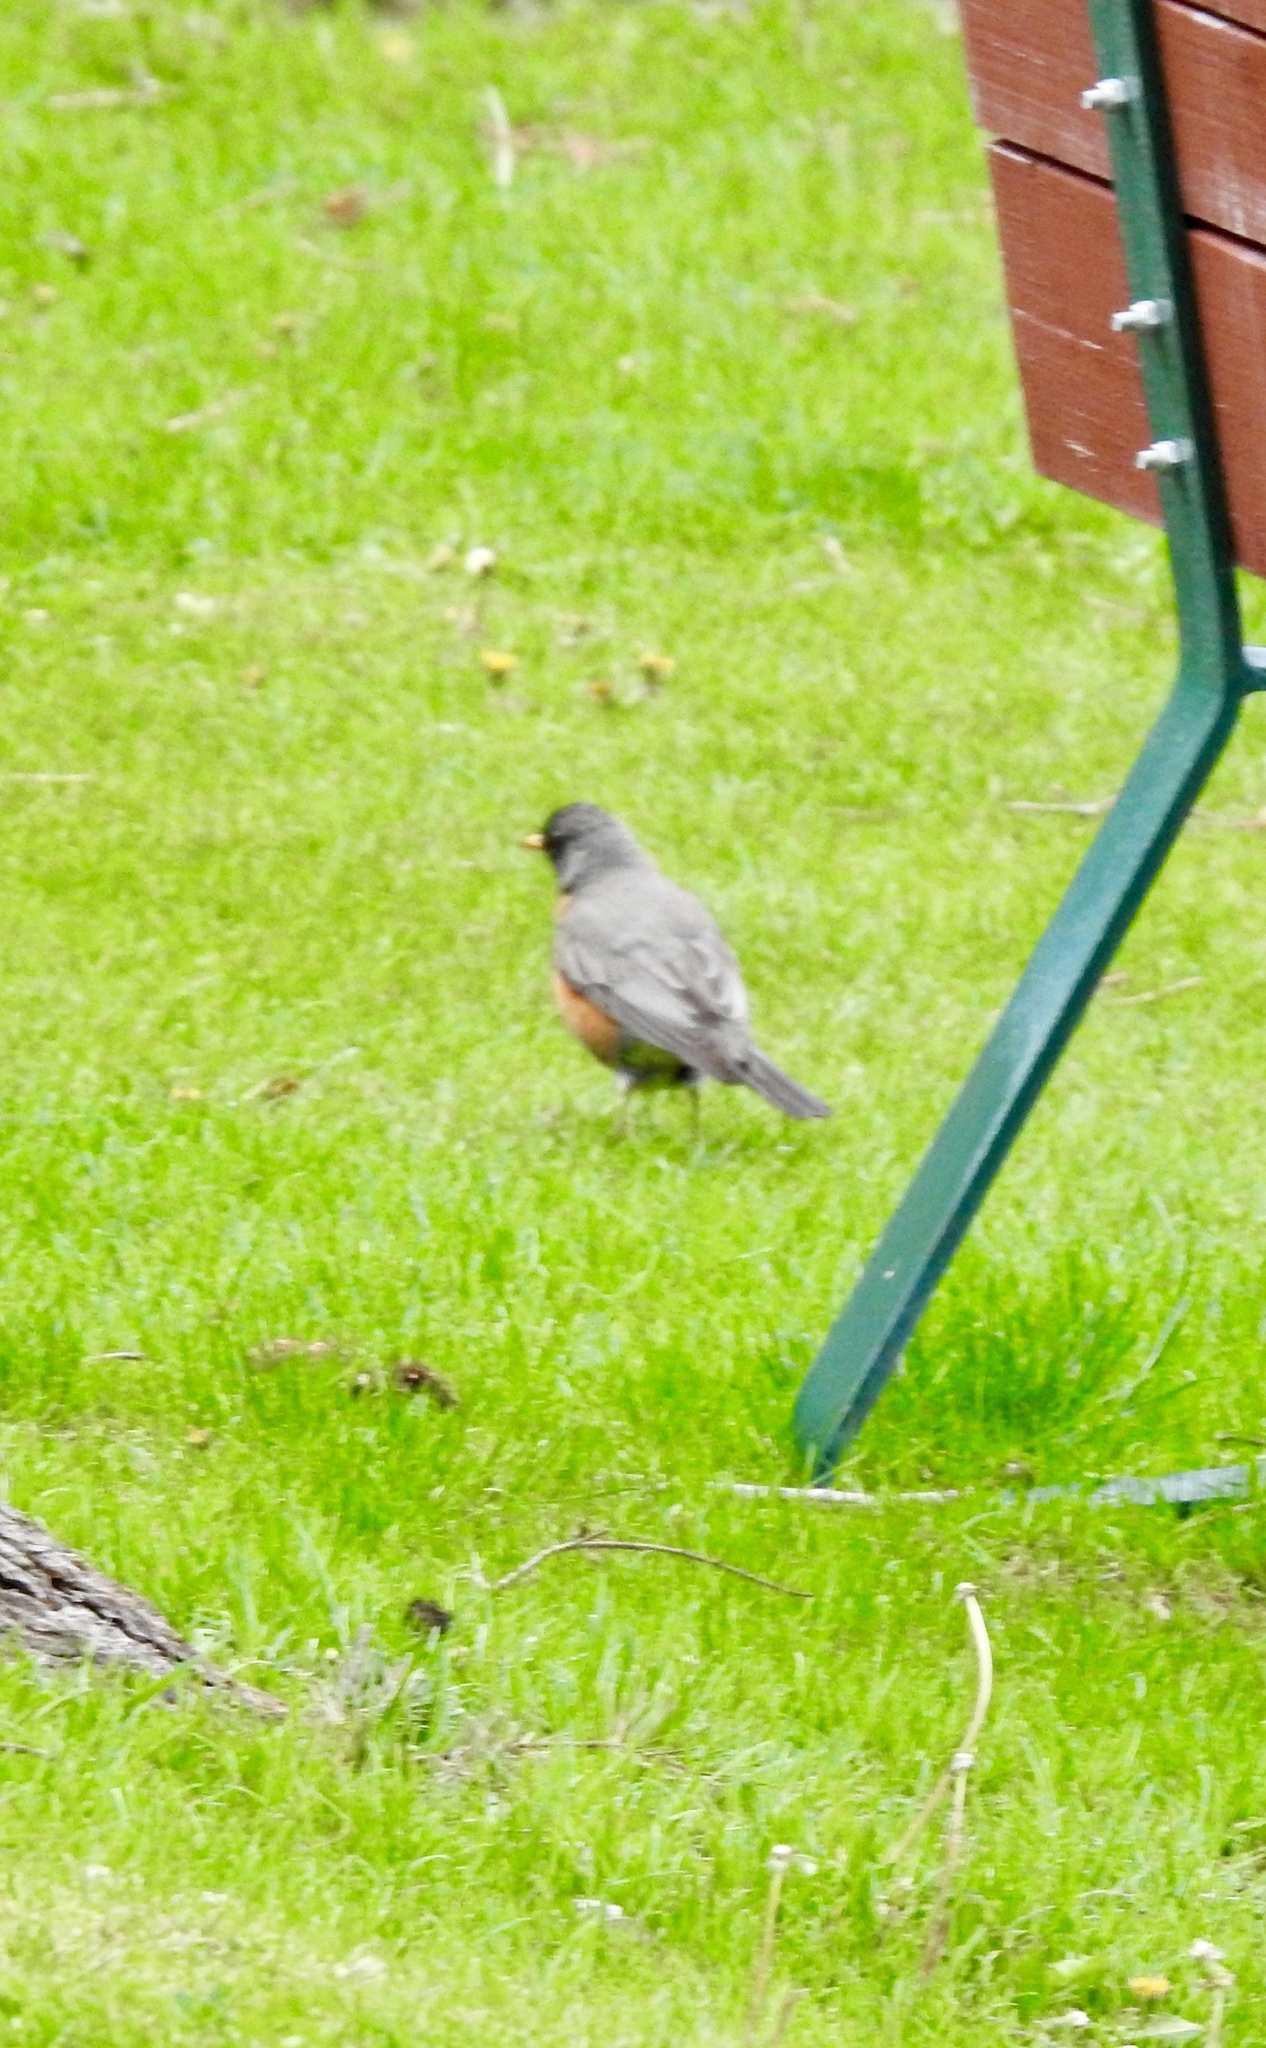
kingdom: Animalia
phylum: Chordata
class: Aves
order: Passeriformes
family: Turdidae
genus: Turdus
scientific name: Turdus migratorius
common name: American robin
